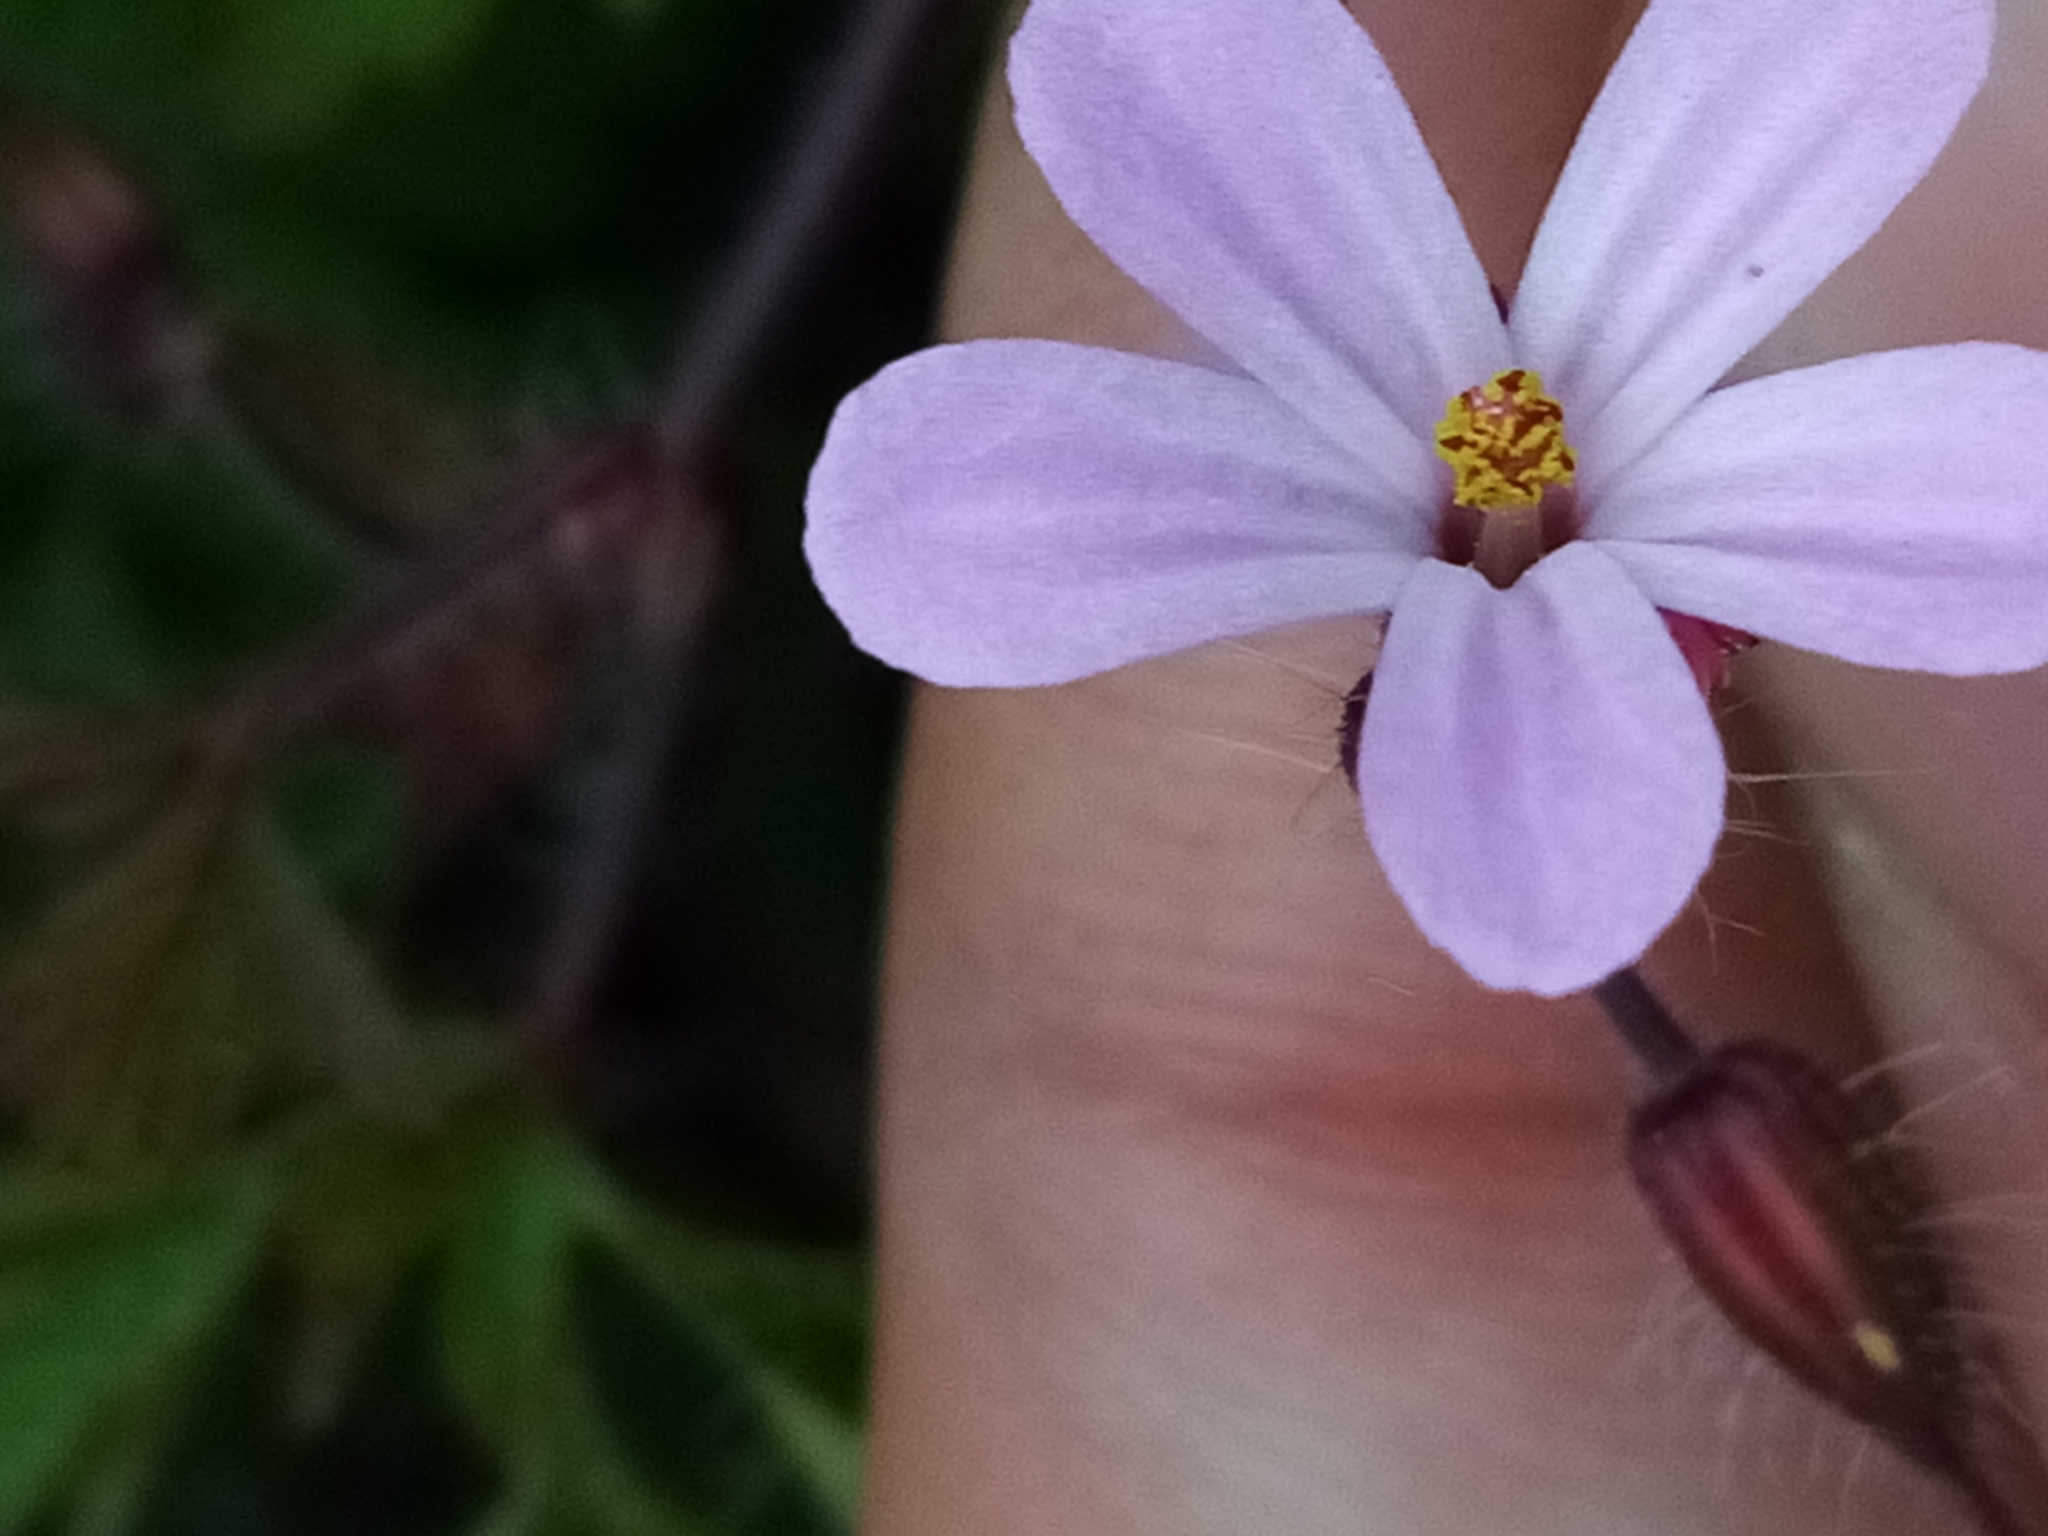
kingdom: Plantae
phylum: Tracheophyta
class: Magnoliopsida
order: Geraniales
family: Geraniaceae
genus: Geranium
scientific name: Geranium robertianum
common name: Herb-robert
